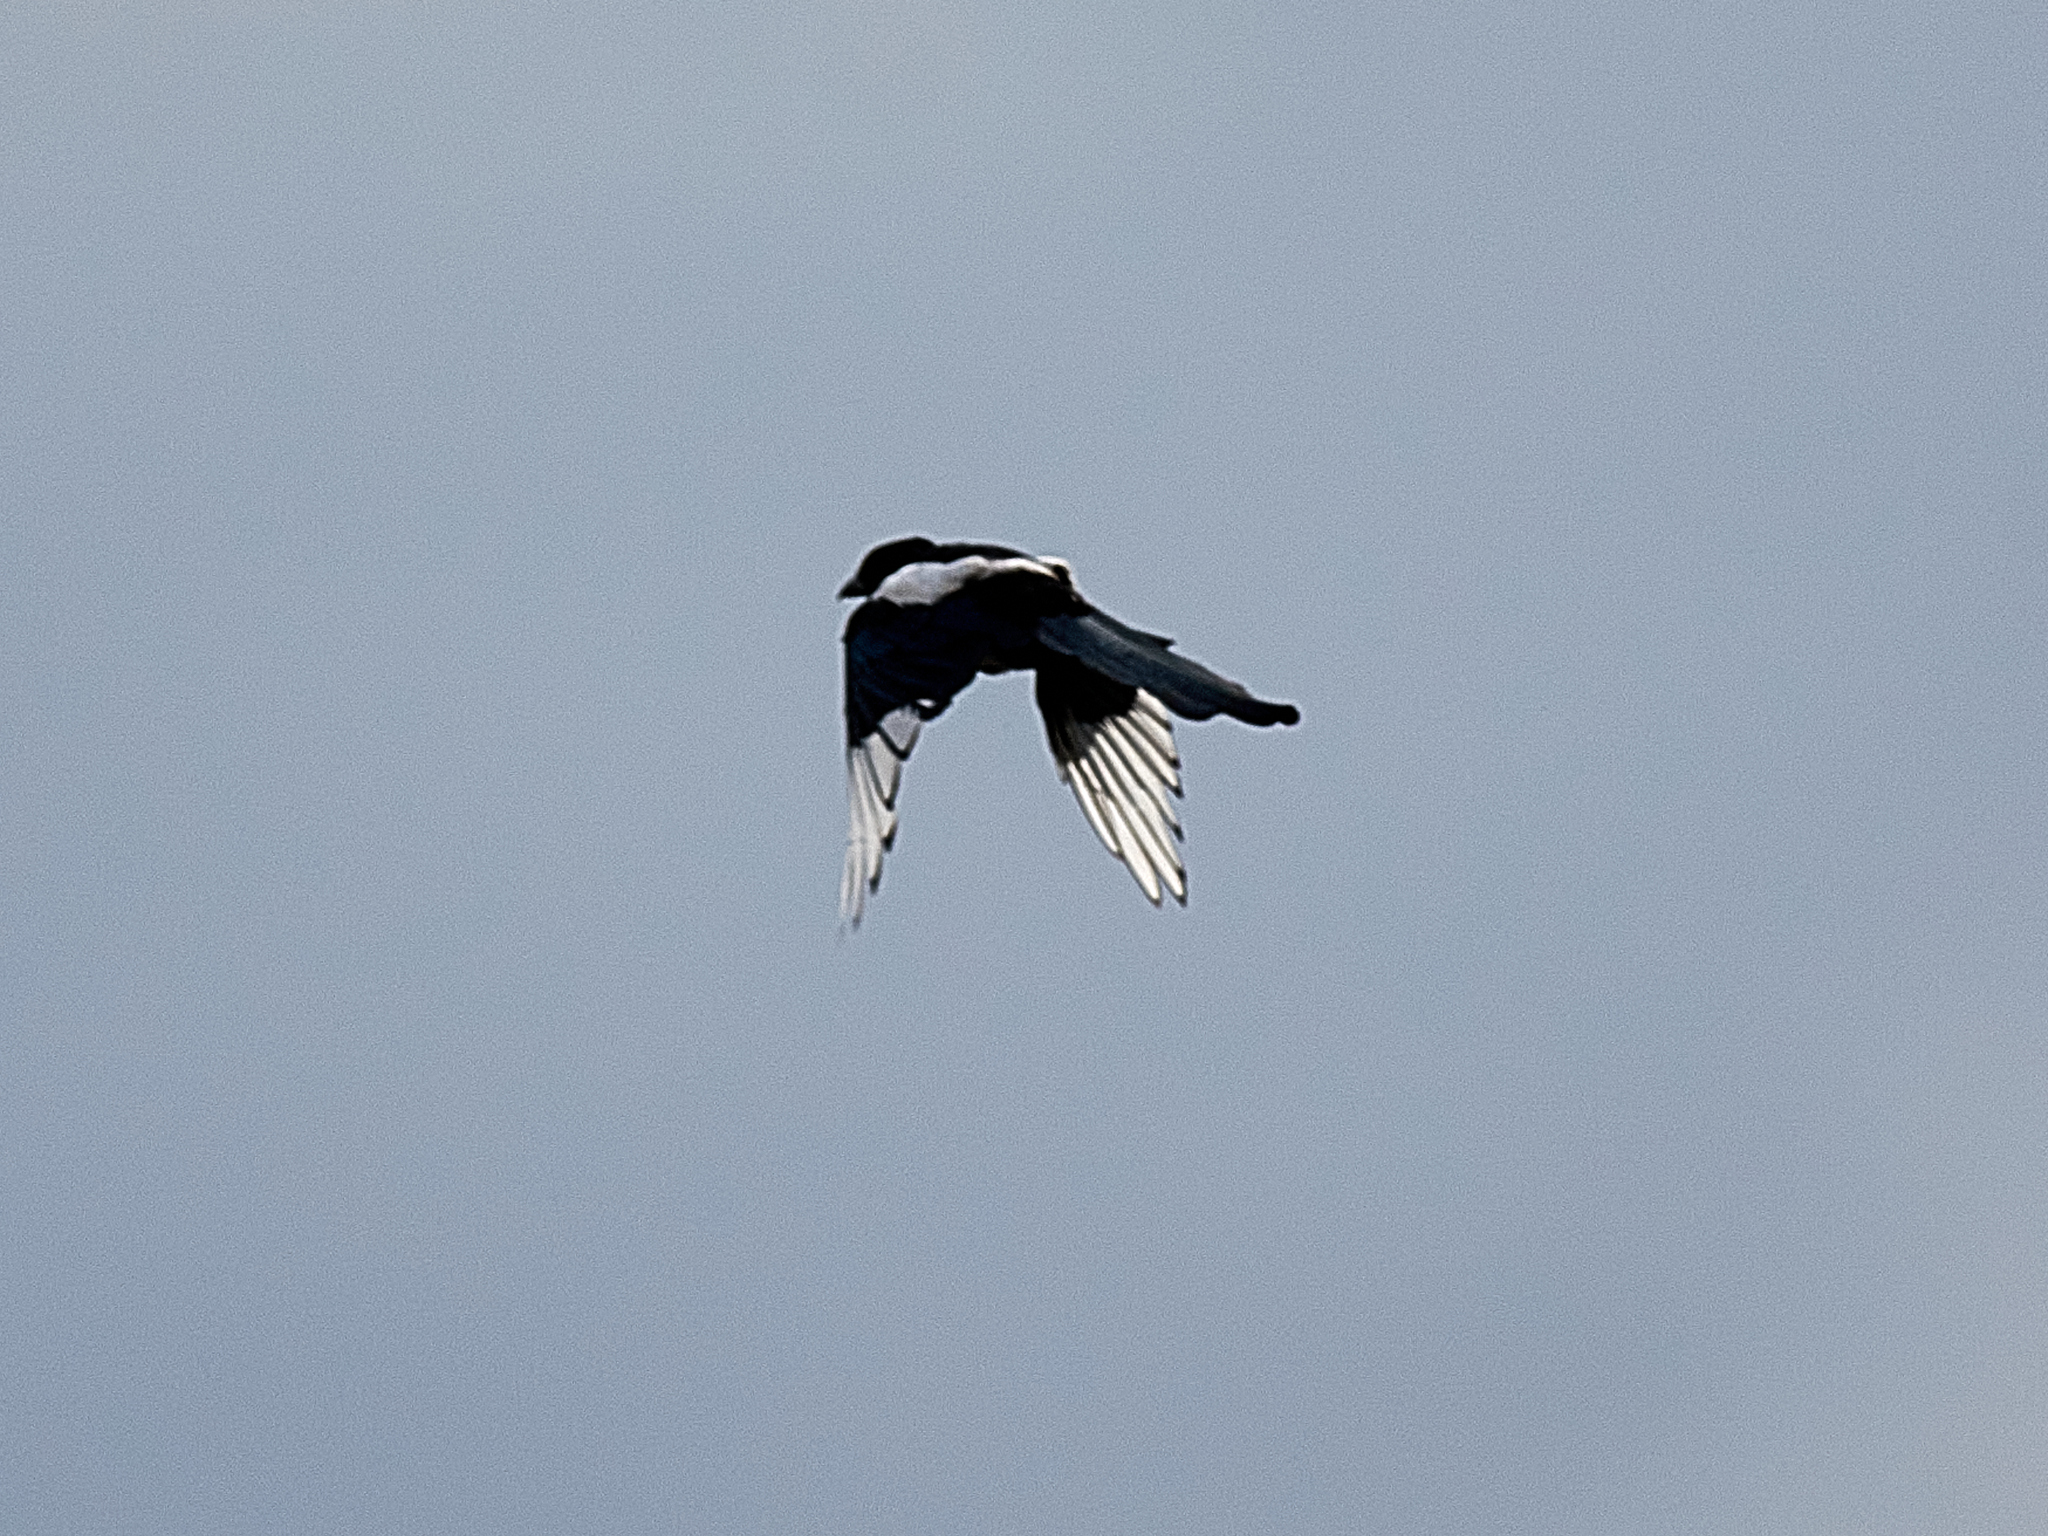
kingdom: Animalia
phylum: Chordata
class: Aves
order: Passeriformes
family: Corvidae
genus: Pica
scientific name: Pica pica
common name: Eurasian magpie
